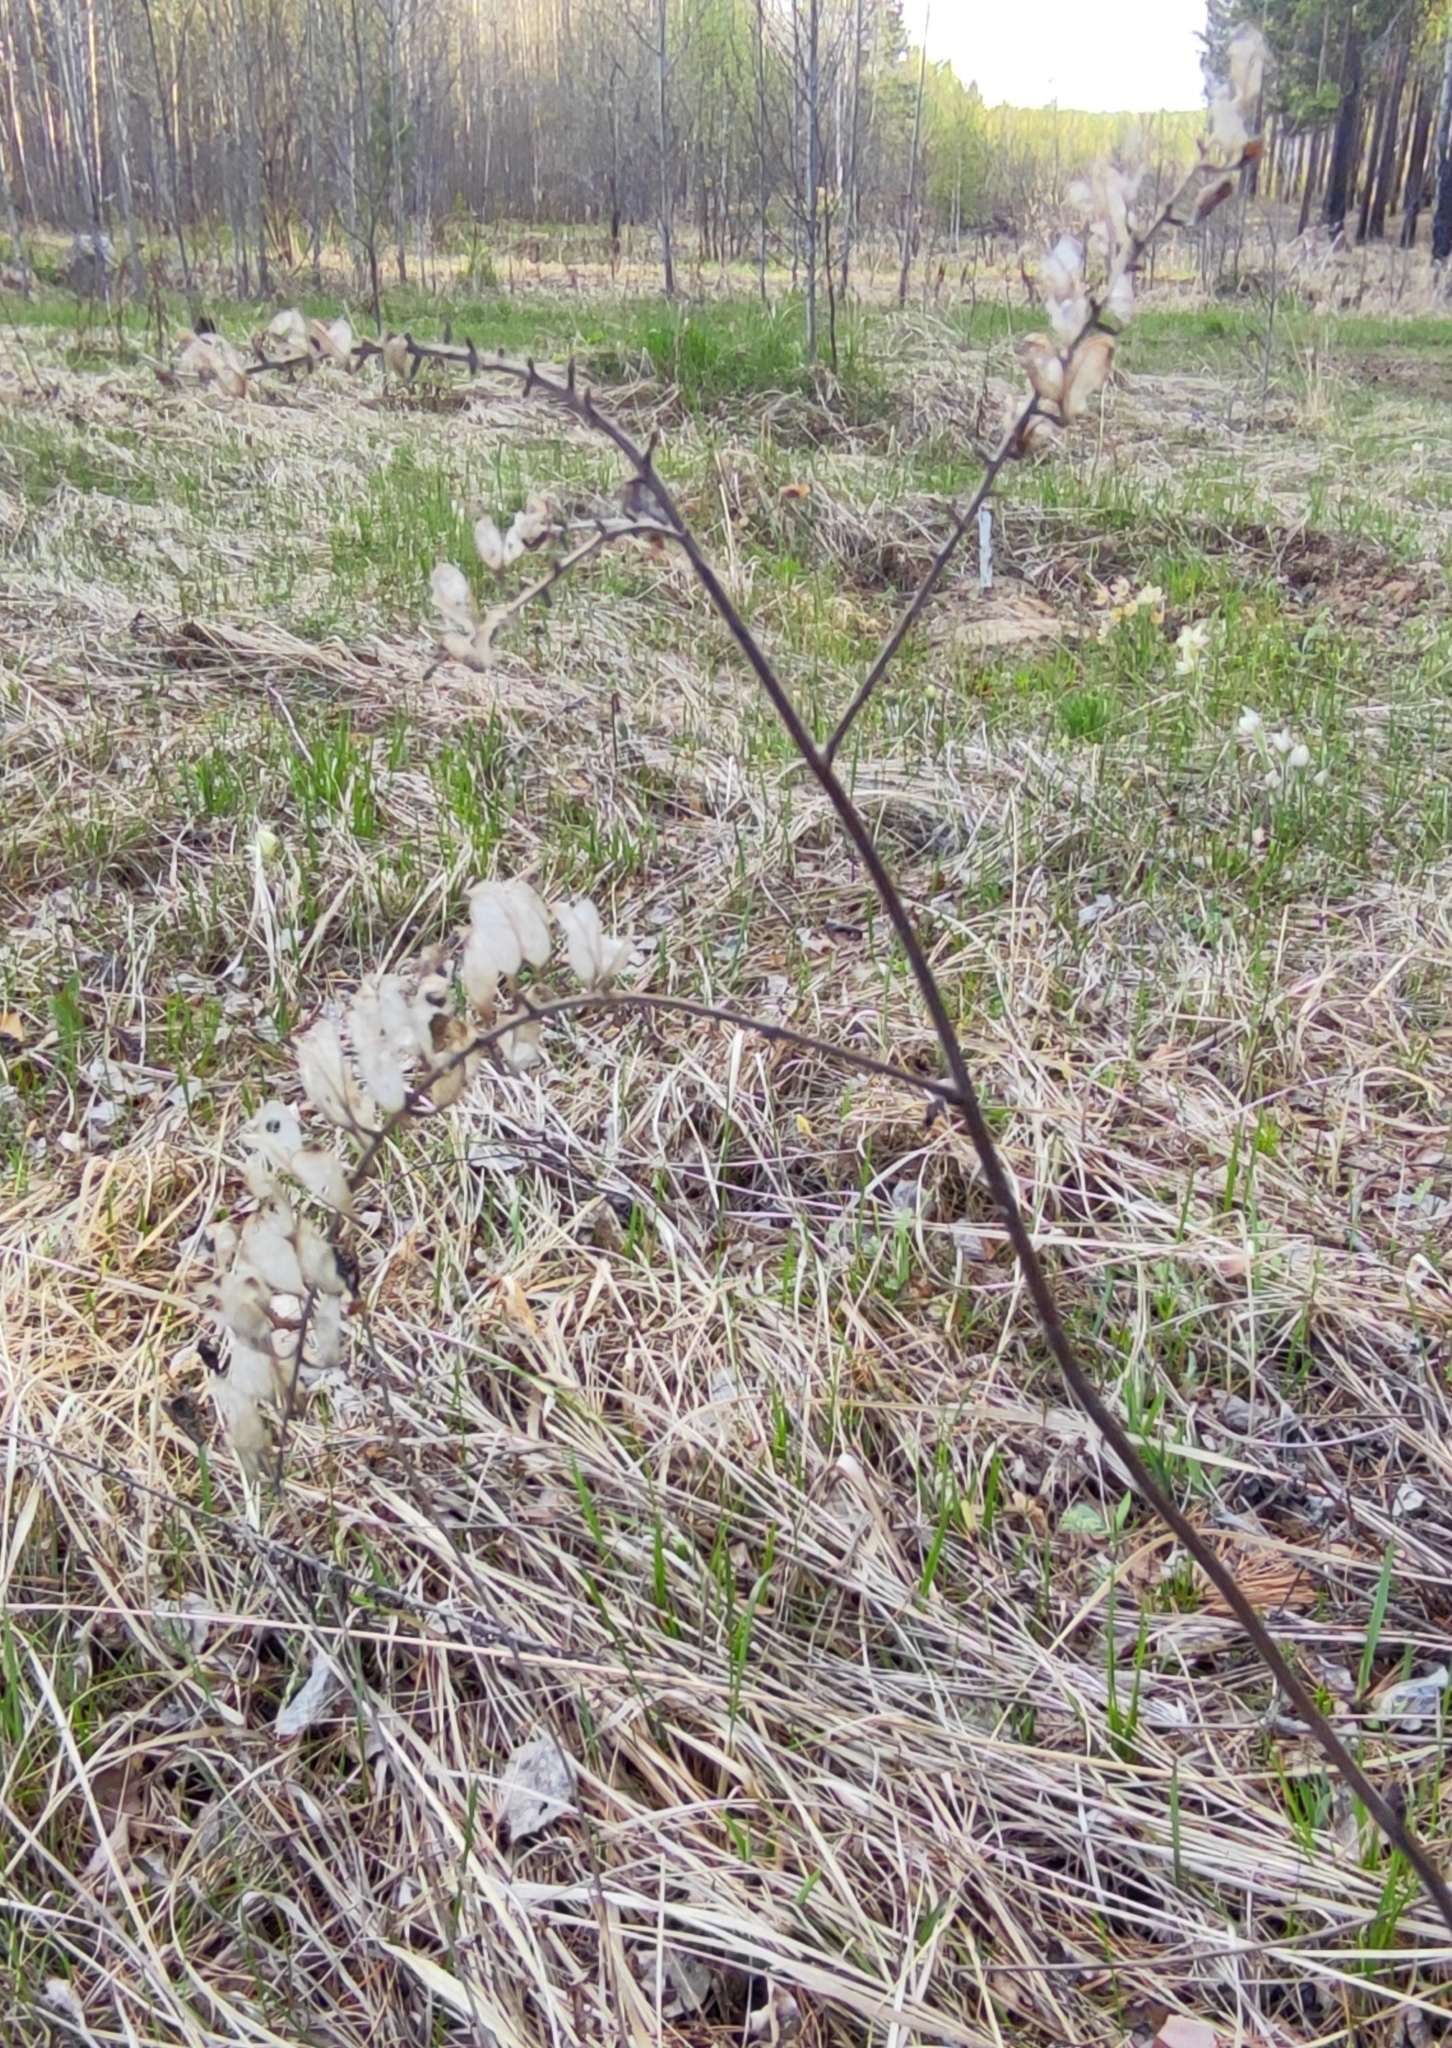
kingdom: Plantae
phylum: Tracheophyta
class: Magnoliopsida
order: Ranunculales
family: Ranunculaceae
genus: Actaea
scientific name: Actaea cimicifuga
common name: Chinese cimicifuga
